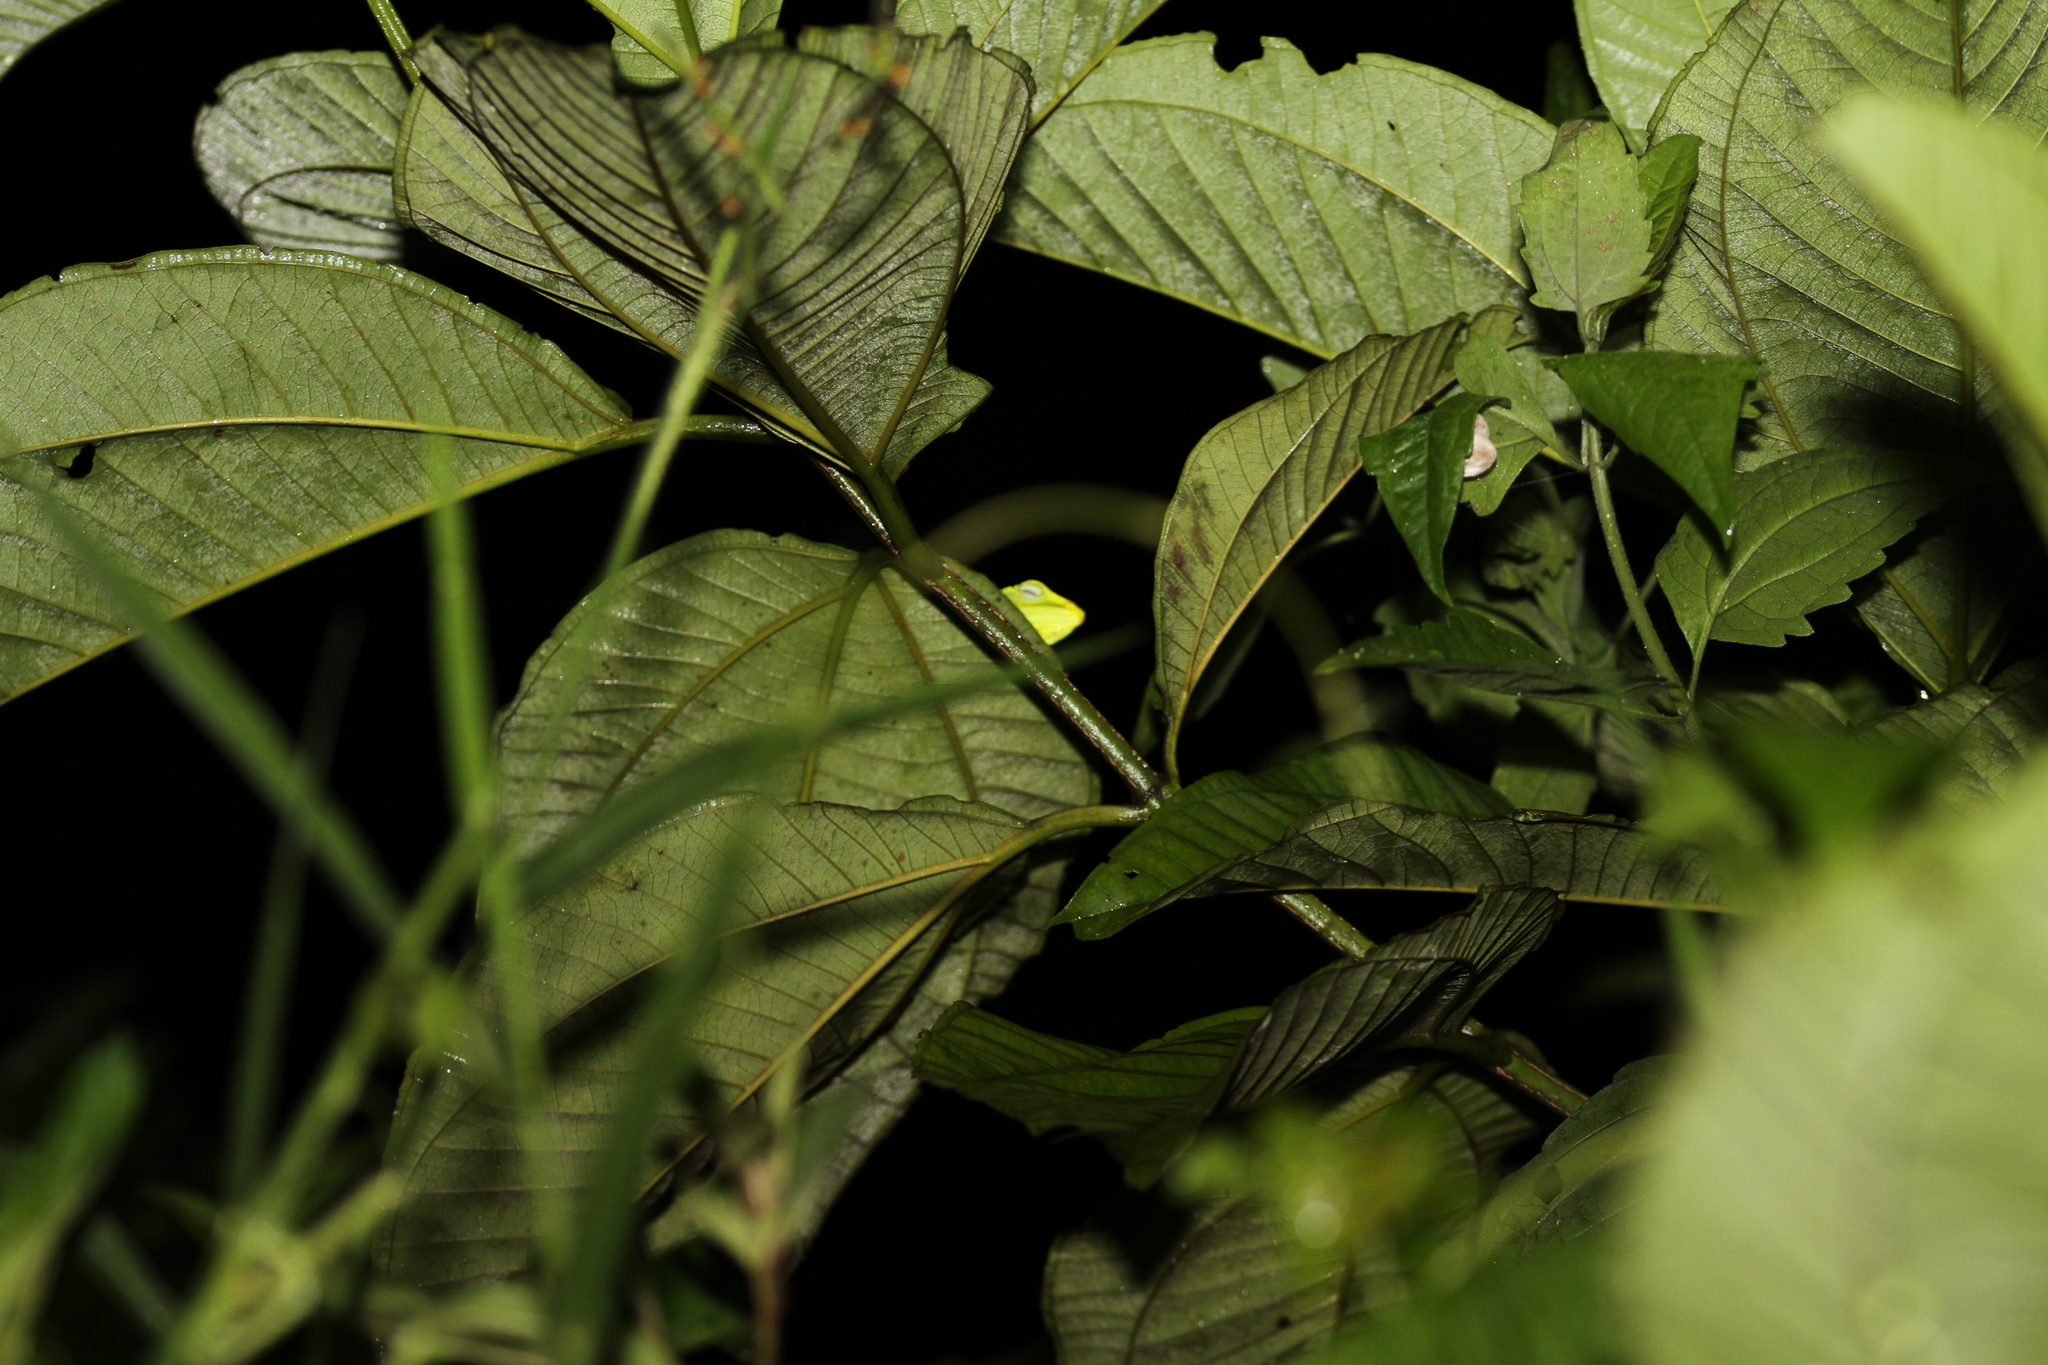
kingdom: Animalia
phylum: Chordata
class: Squamata
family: Agamidae
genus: Bronchocela
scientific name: Bronchocela jubata
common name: Maned forest lizard
